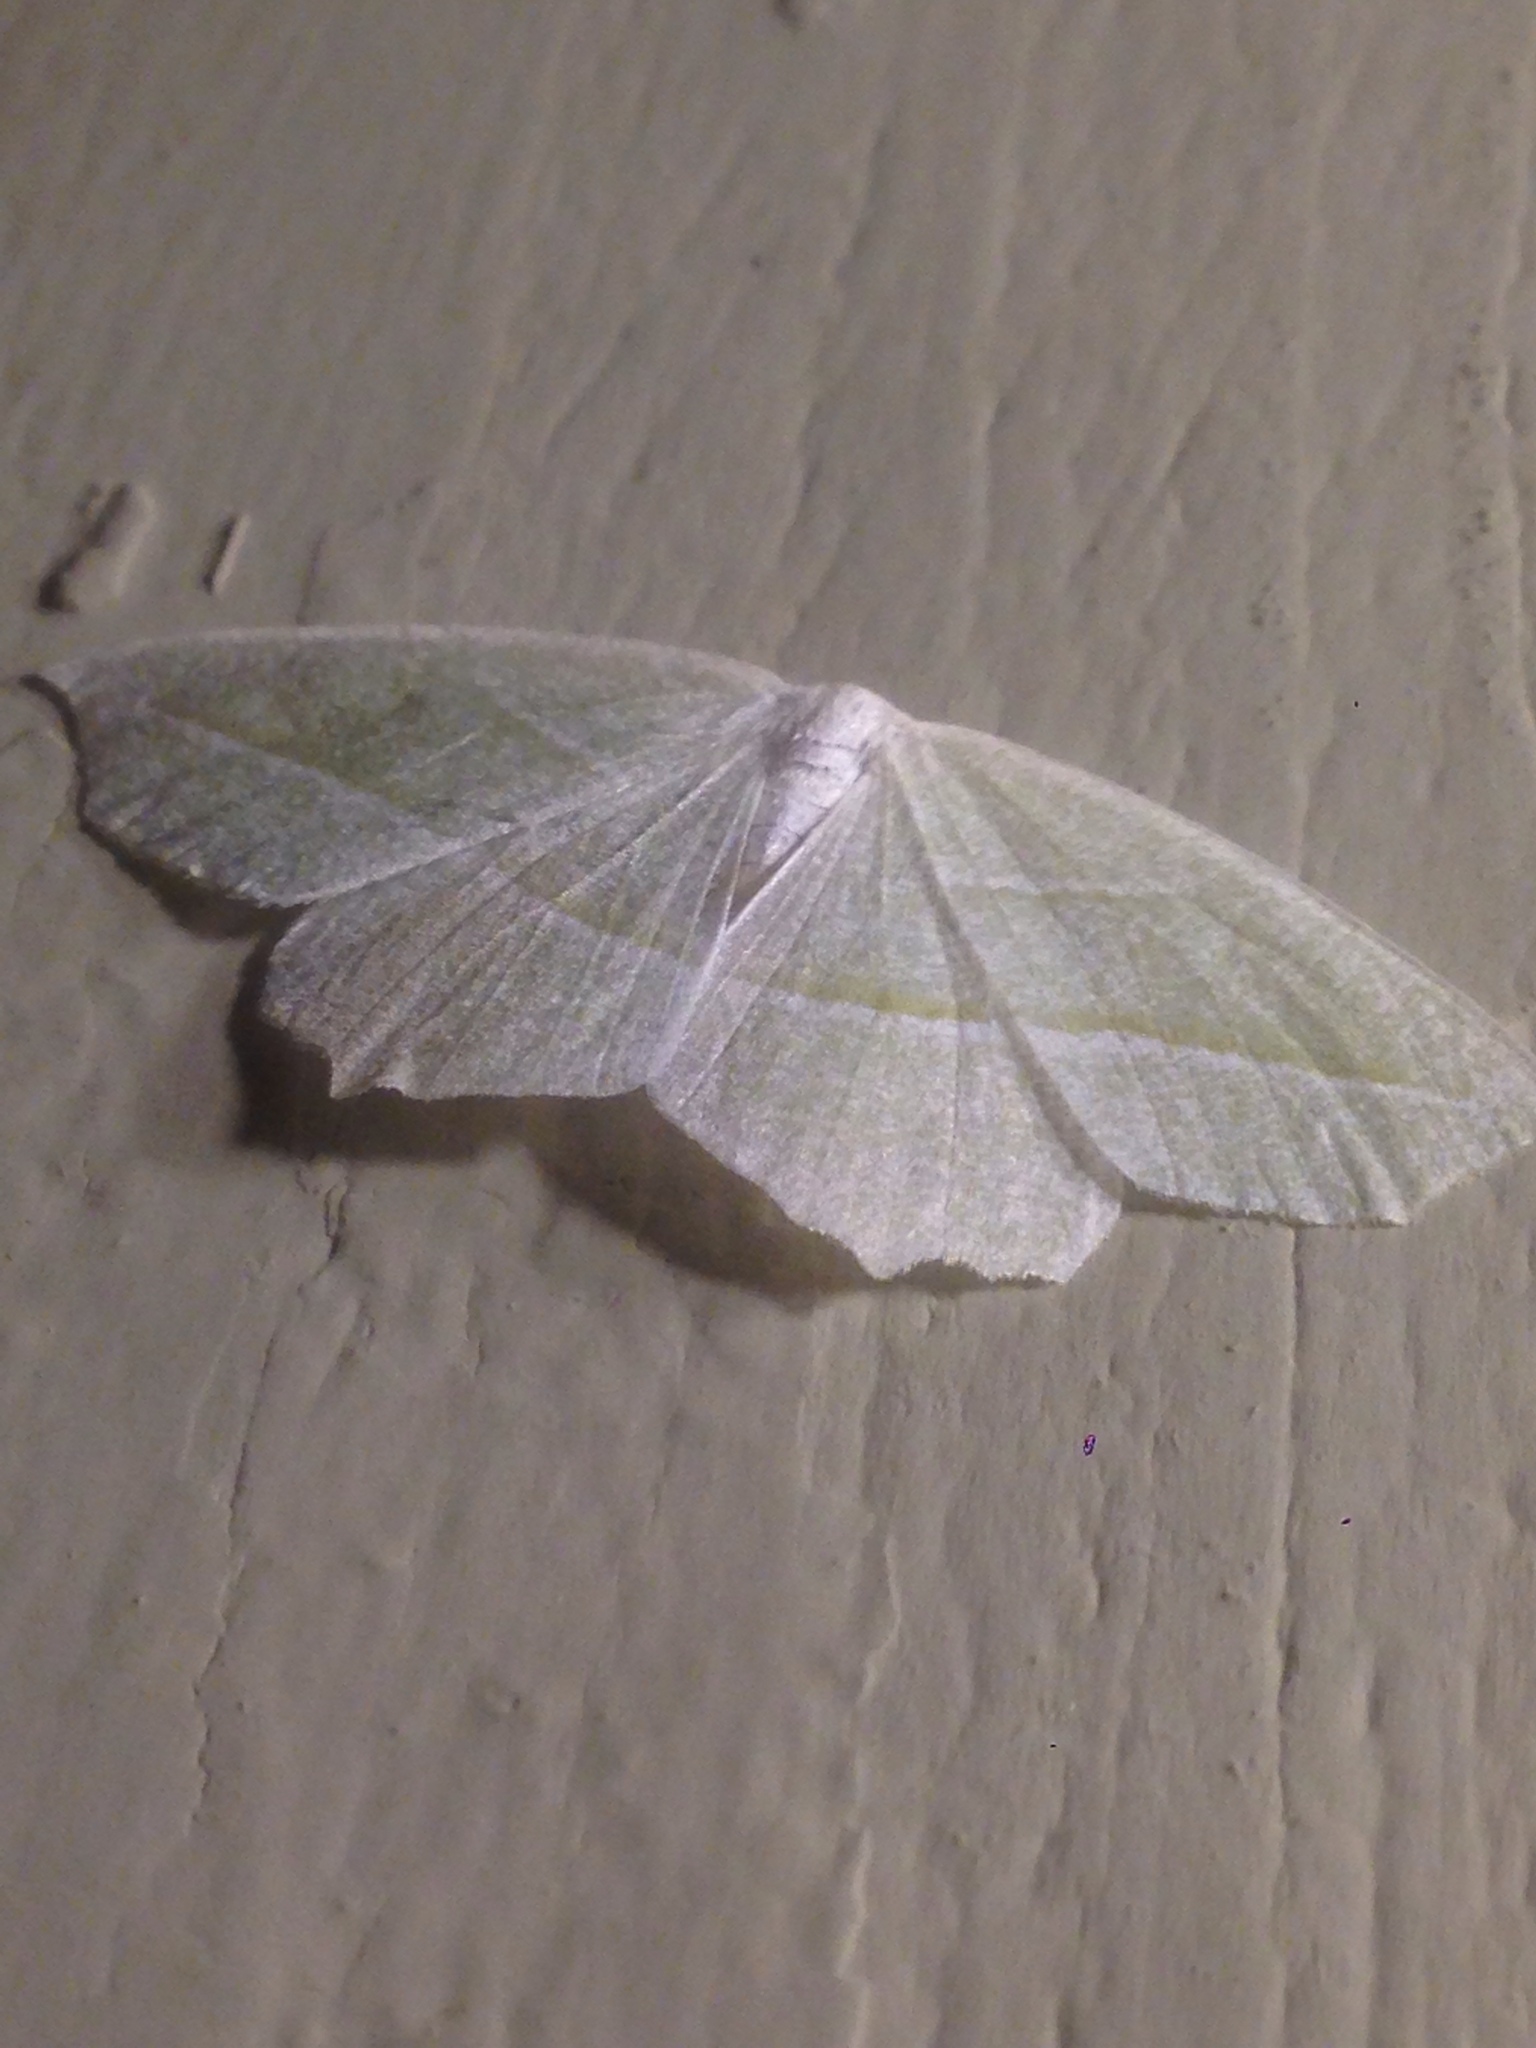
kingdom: Animalia
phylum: Arthropoda
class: Insecta
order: Lepidoptera
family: Geometridae
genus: Campaea
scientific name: Campaea perlata
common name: Fringed looper
